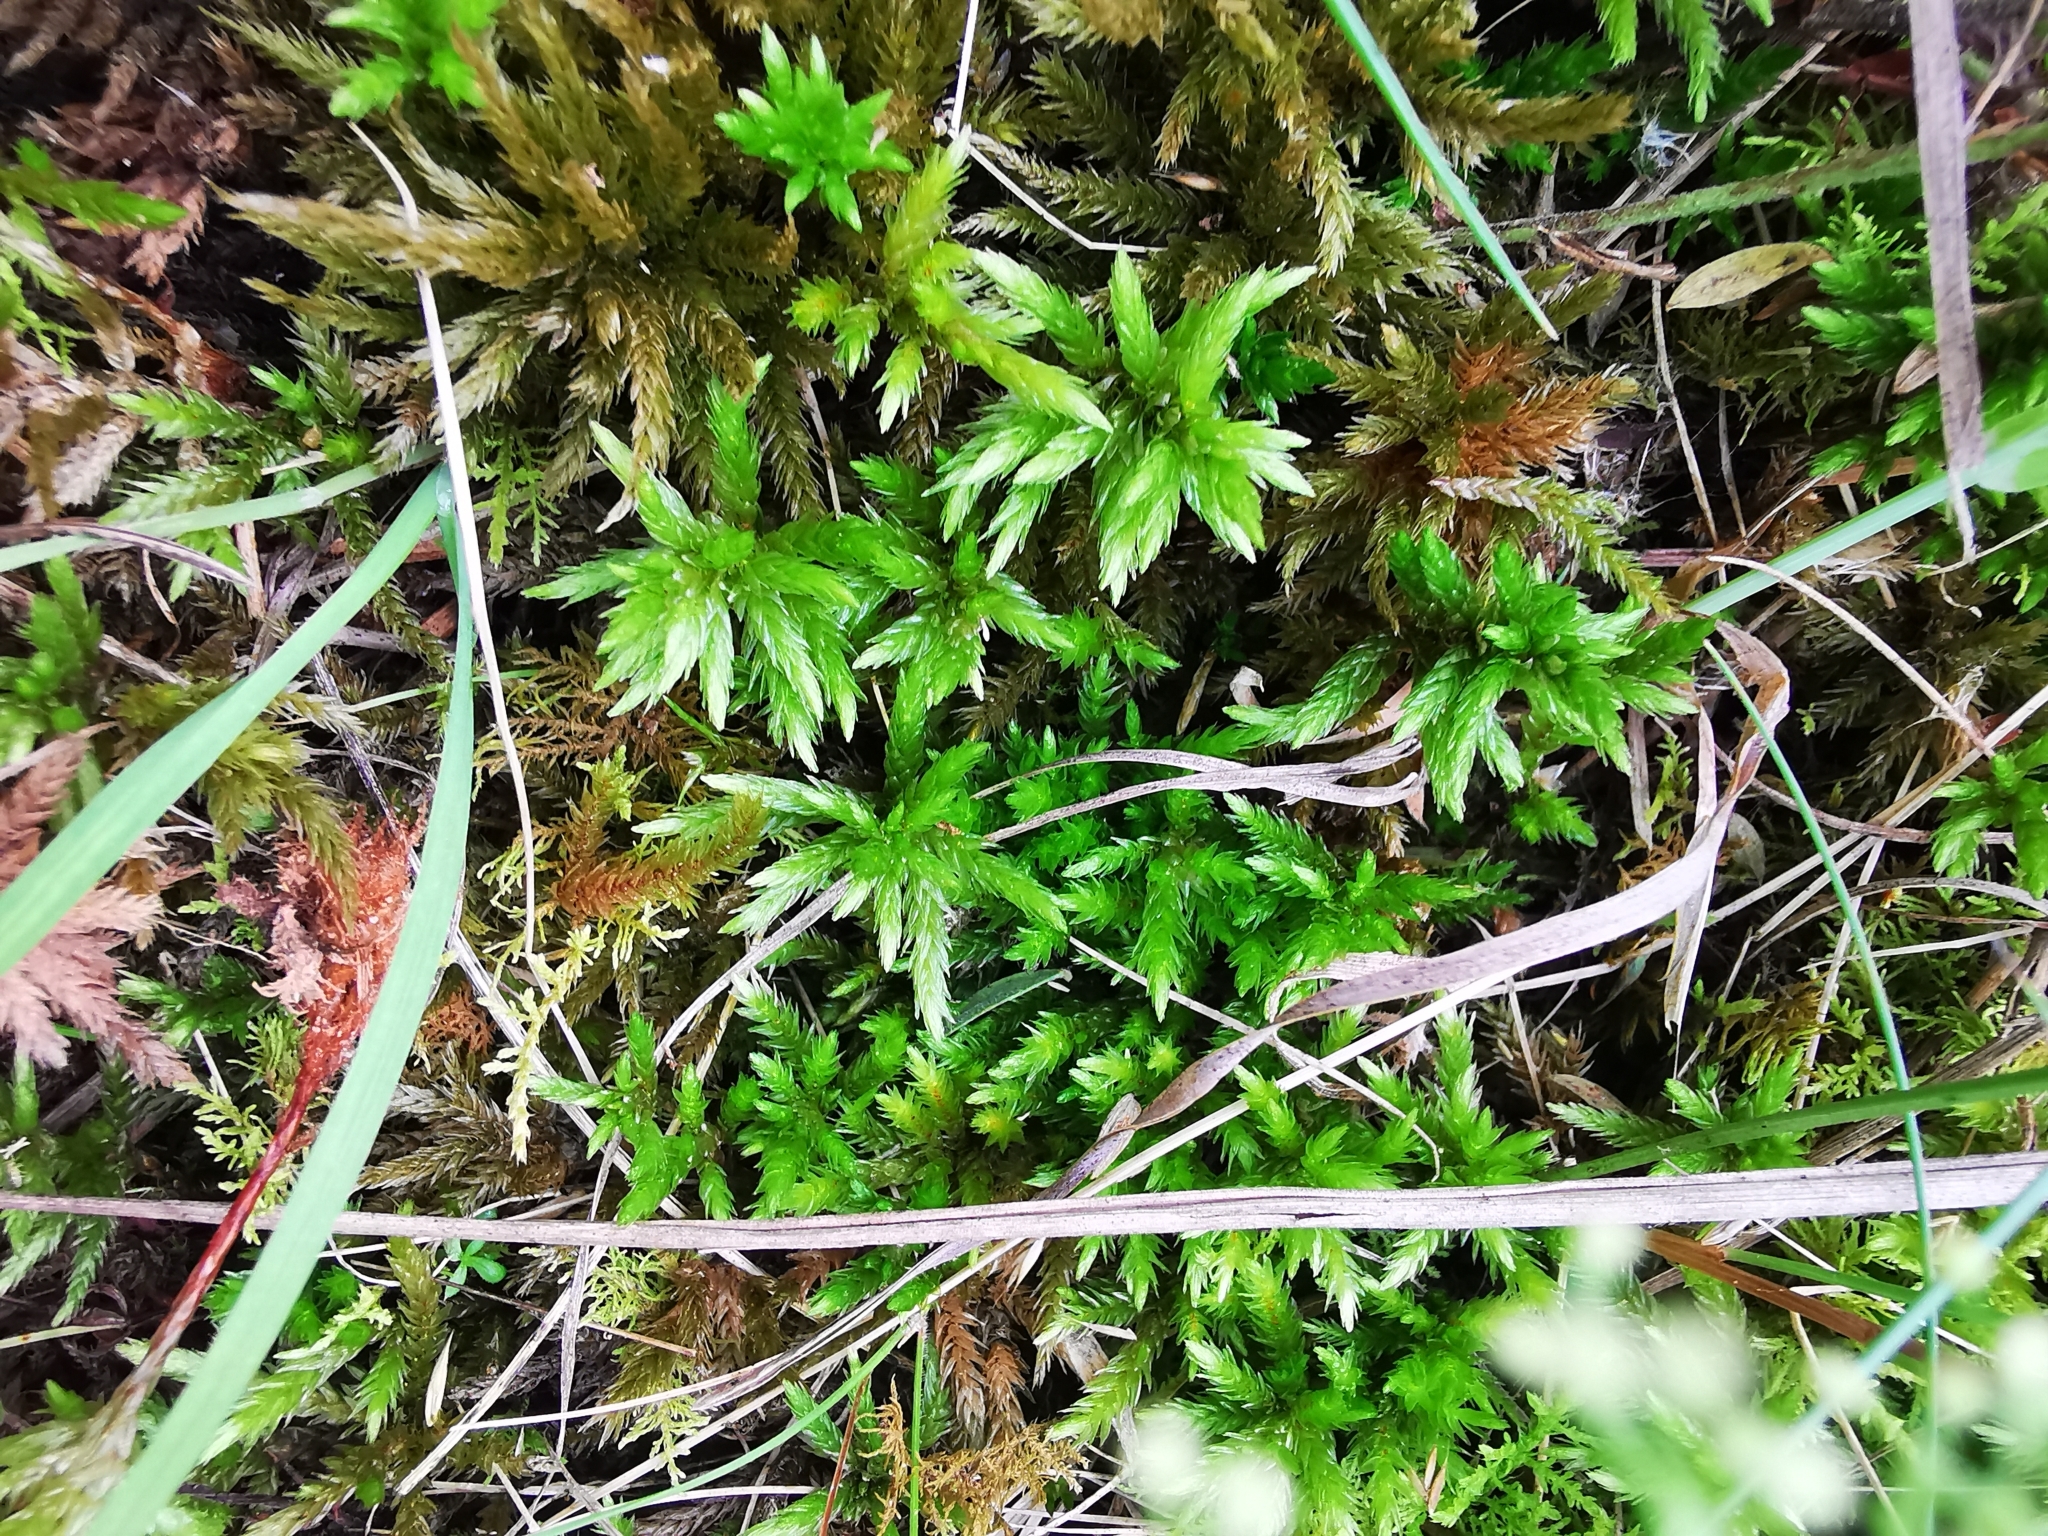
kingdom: Plantae
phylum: Bryophyta
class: Bryopsida
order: Hypnales
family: Climaciaceae
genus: Climacium
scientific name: Climacium dendroides
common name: Northern tree moss
